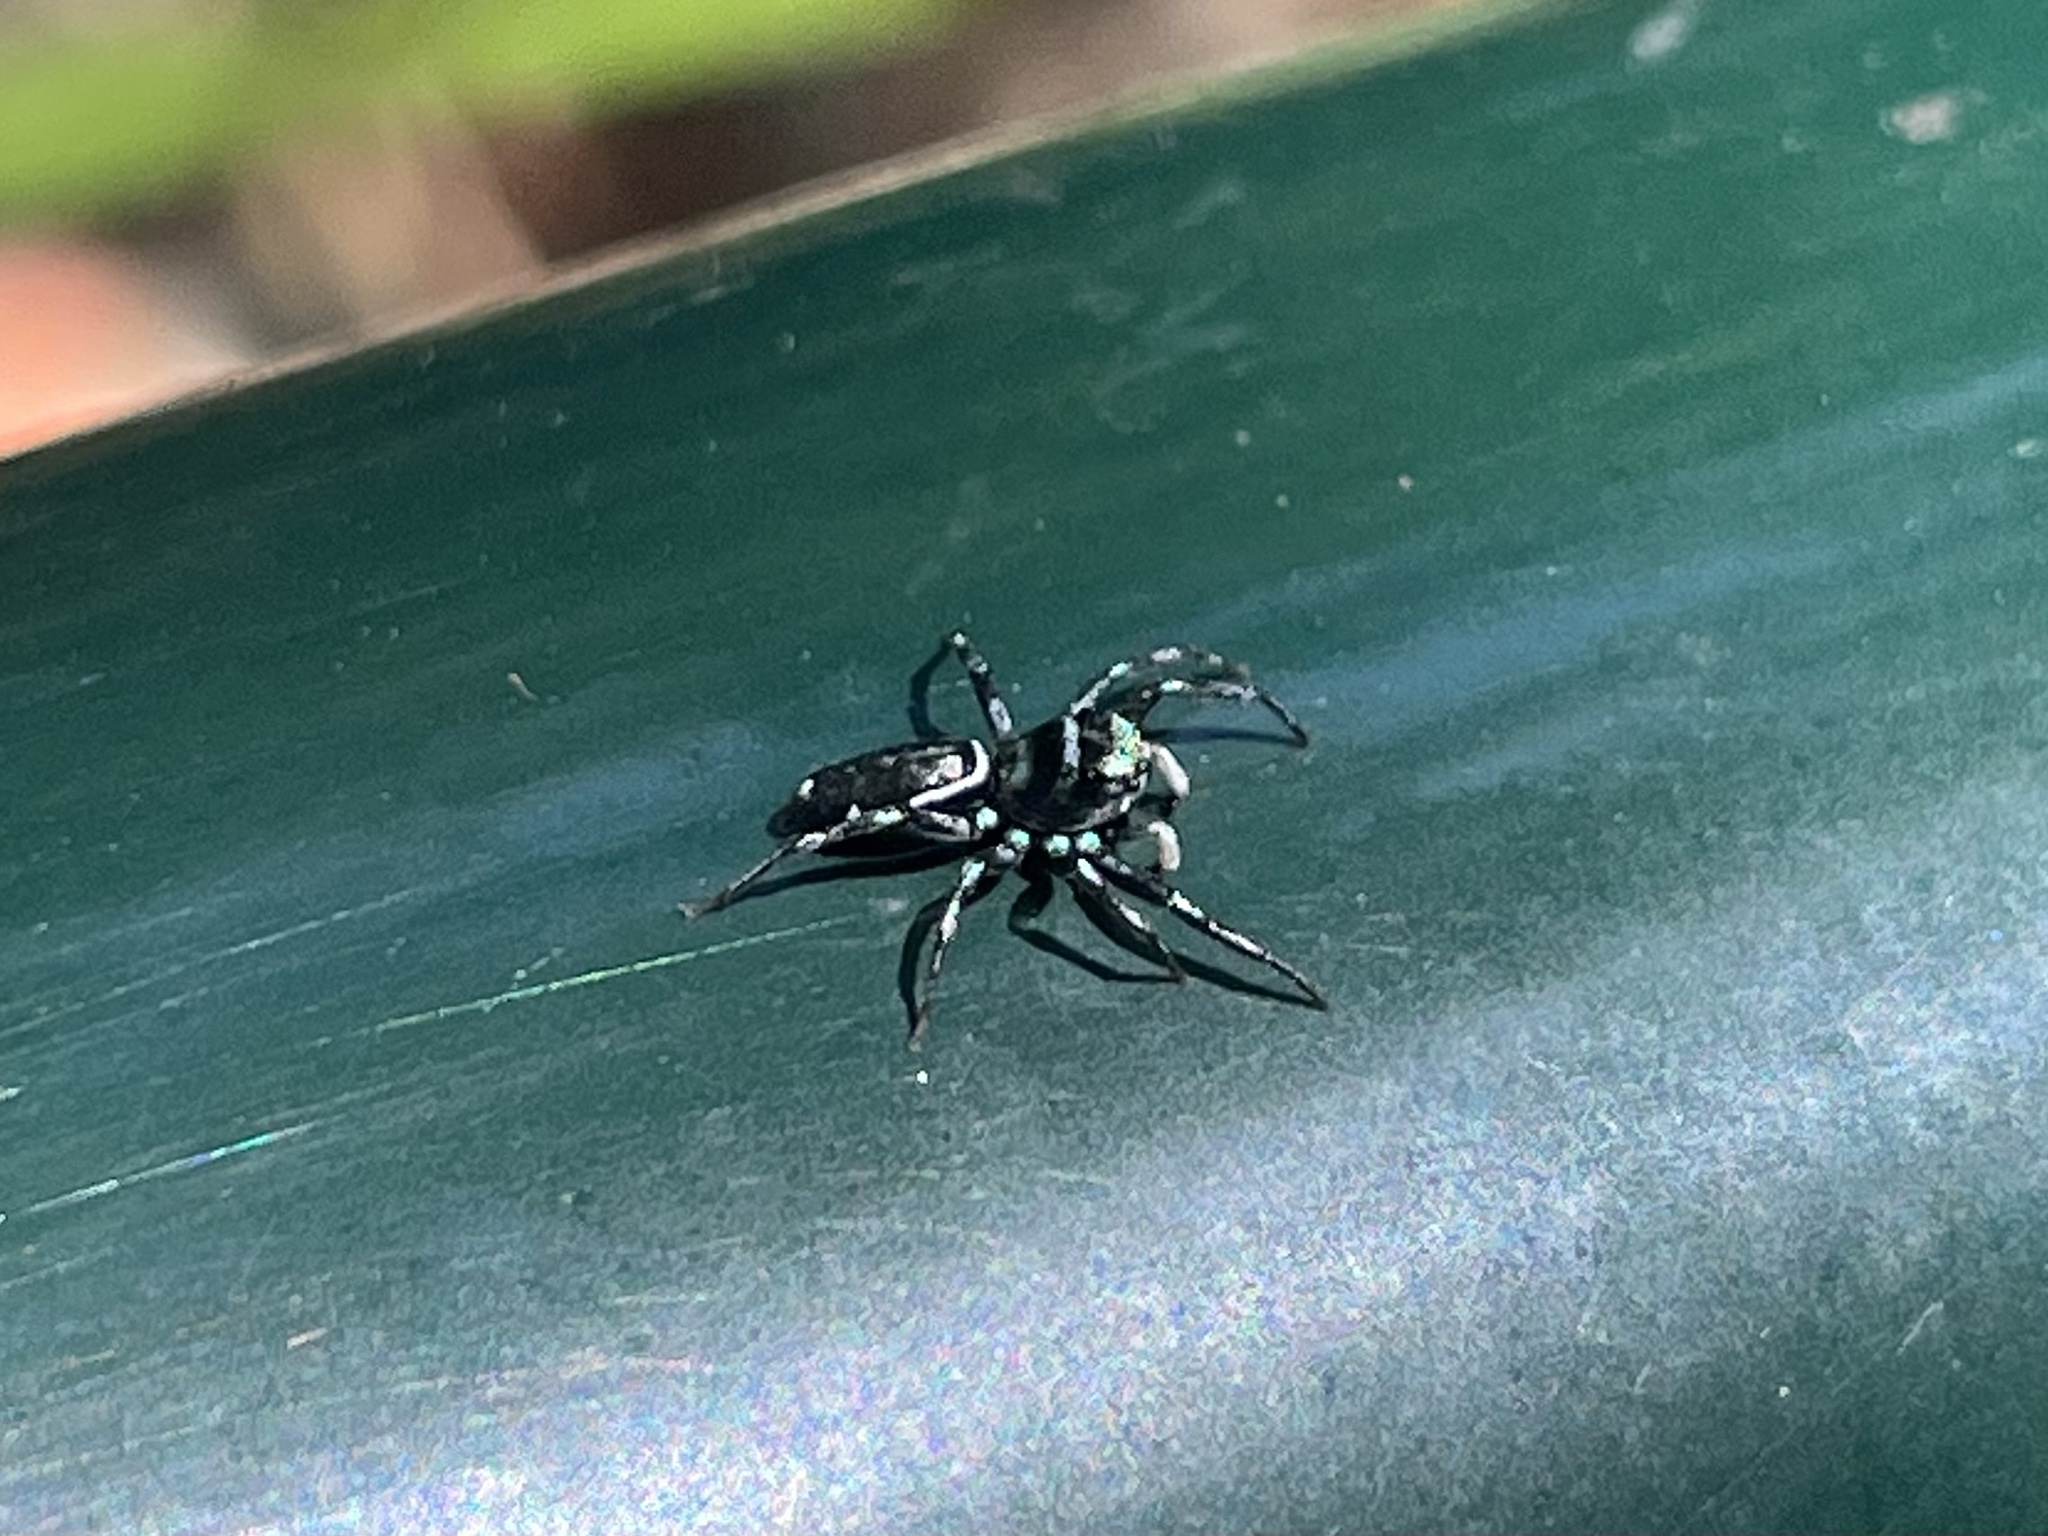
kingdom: Animalia
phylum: Arthropoda
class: Arachnida
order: Araneae
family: Salticidae
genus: Cosmophasis
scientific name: Cosmophasis thalassina
